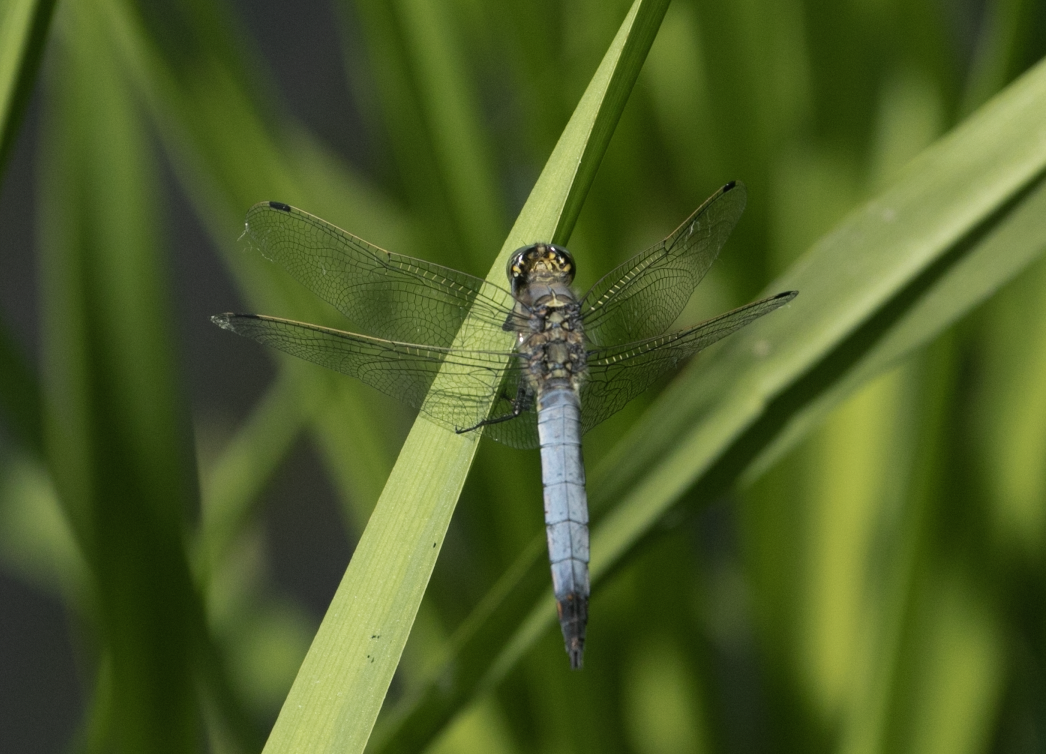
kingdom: Animalia
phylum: Arthropoda
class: Insecta
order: Odonata
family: Libellulidae
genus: Orthetrum
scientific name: Orthetrum cancellatum
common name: Black-tailed skimmer
